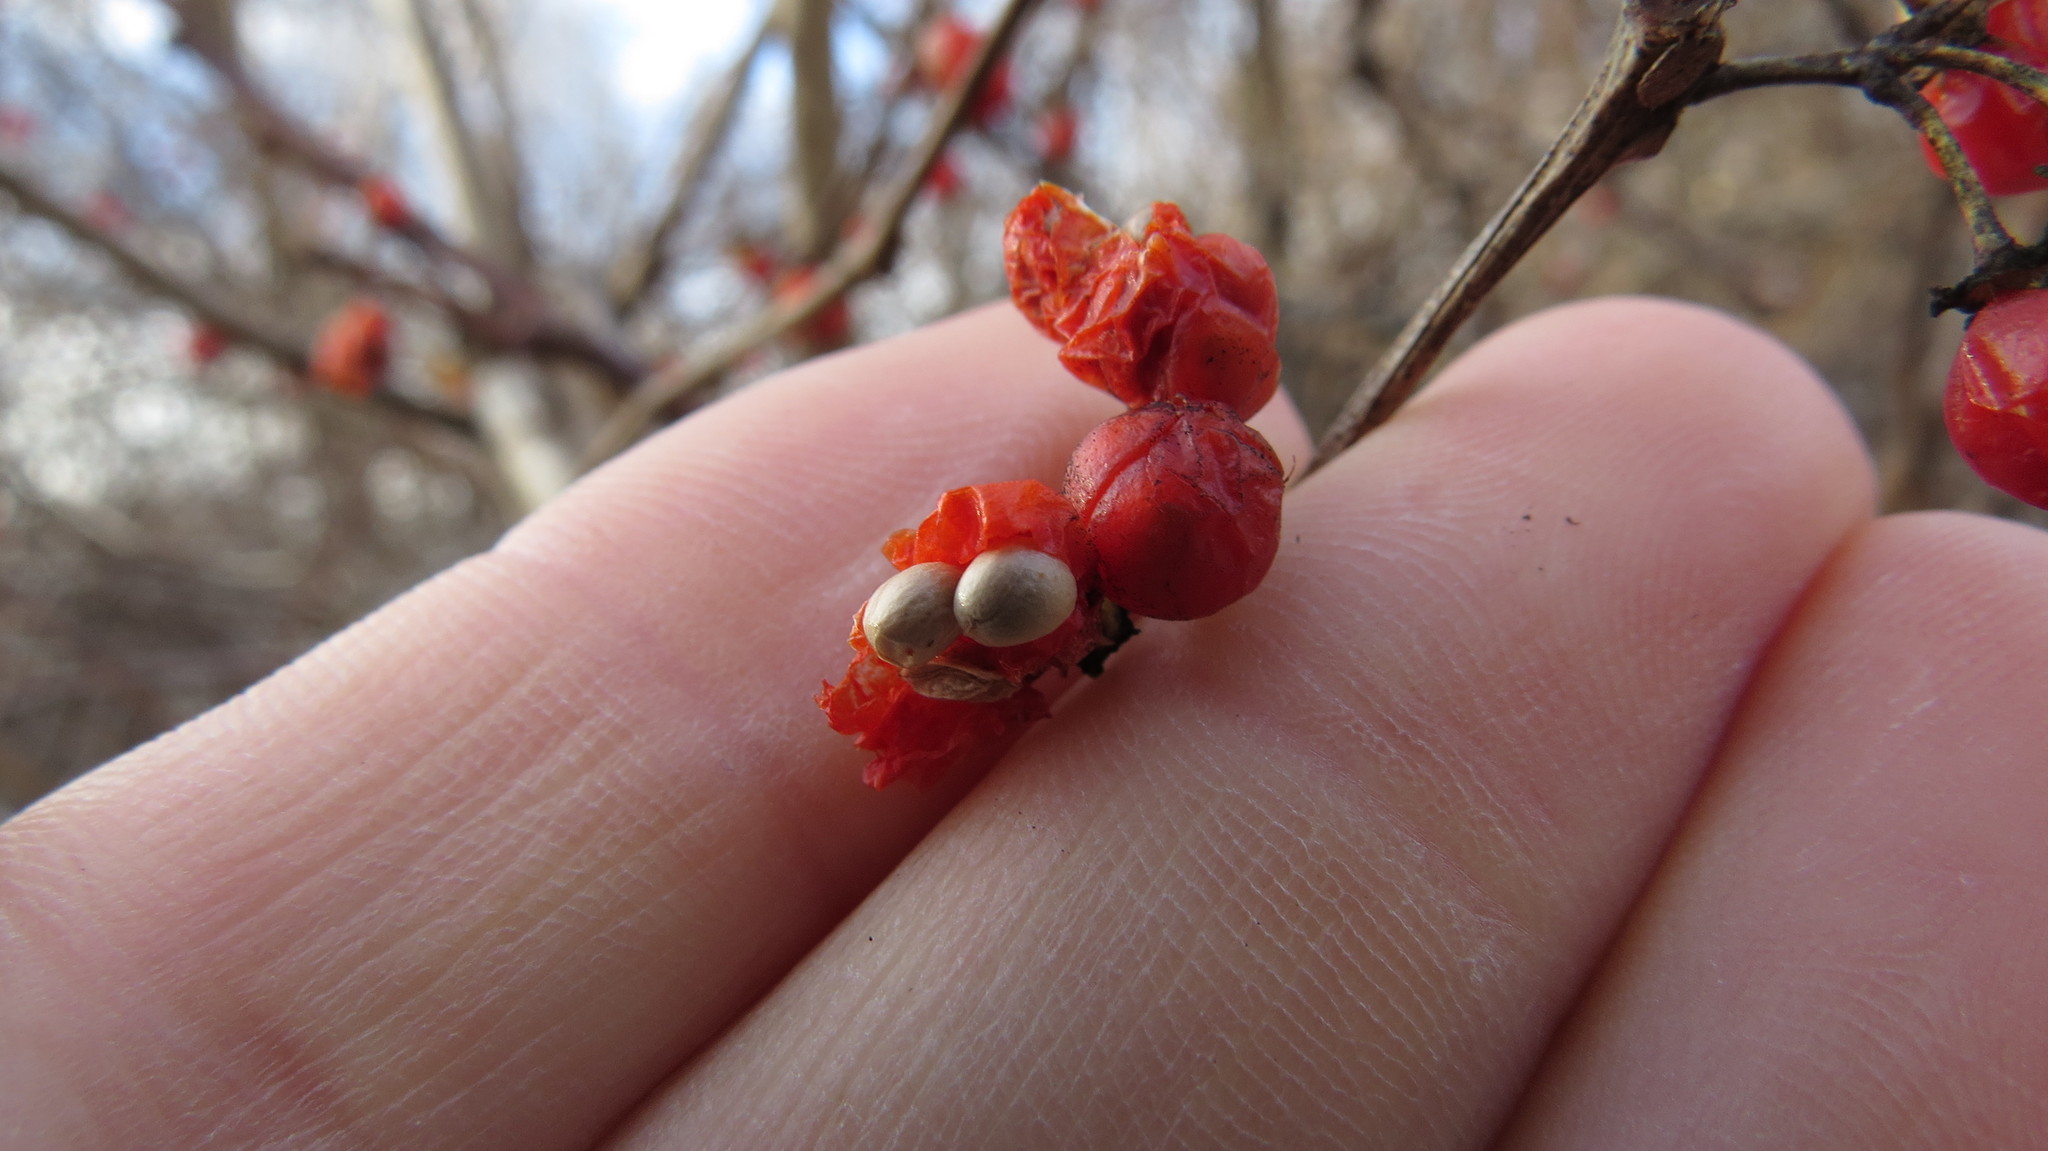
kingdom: Plantae
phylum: Tracheophyta
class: Magnoliopsida
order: Celastrales
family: Celastraceae
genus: Celastrus
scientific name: Celastrus orbiculatus
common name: Oriental bittersweet
